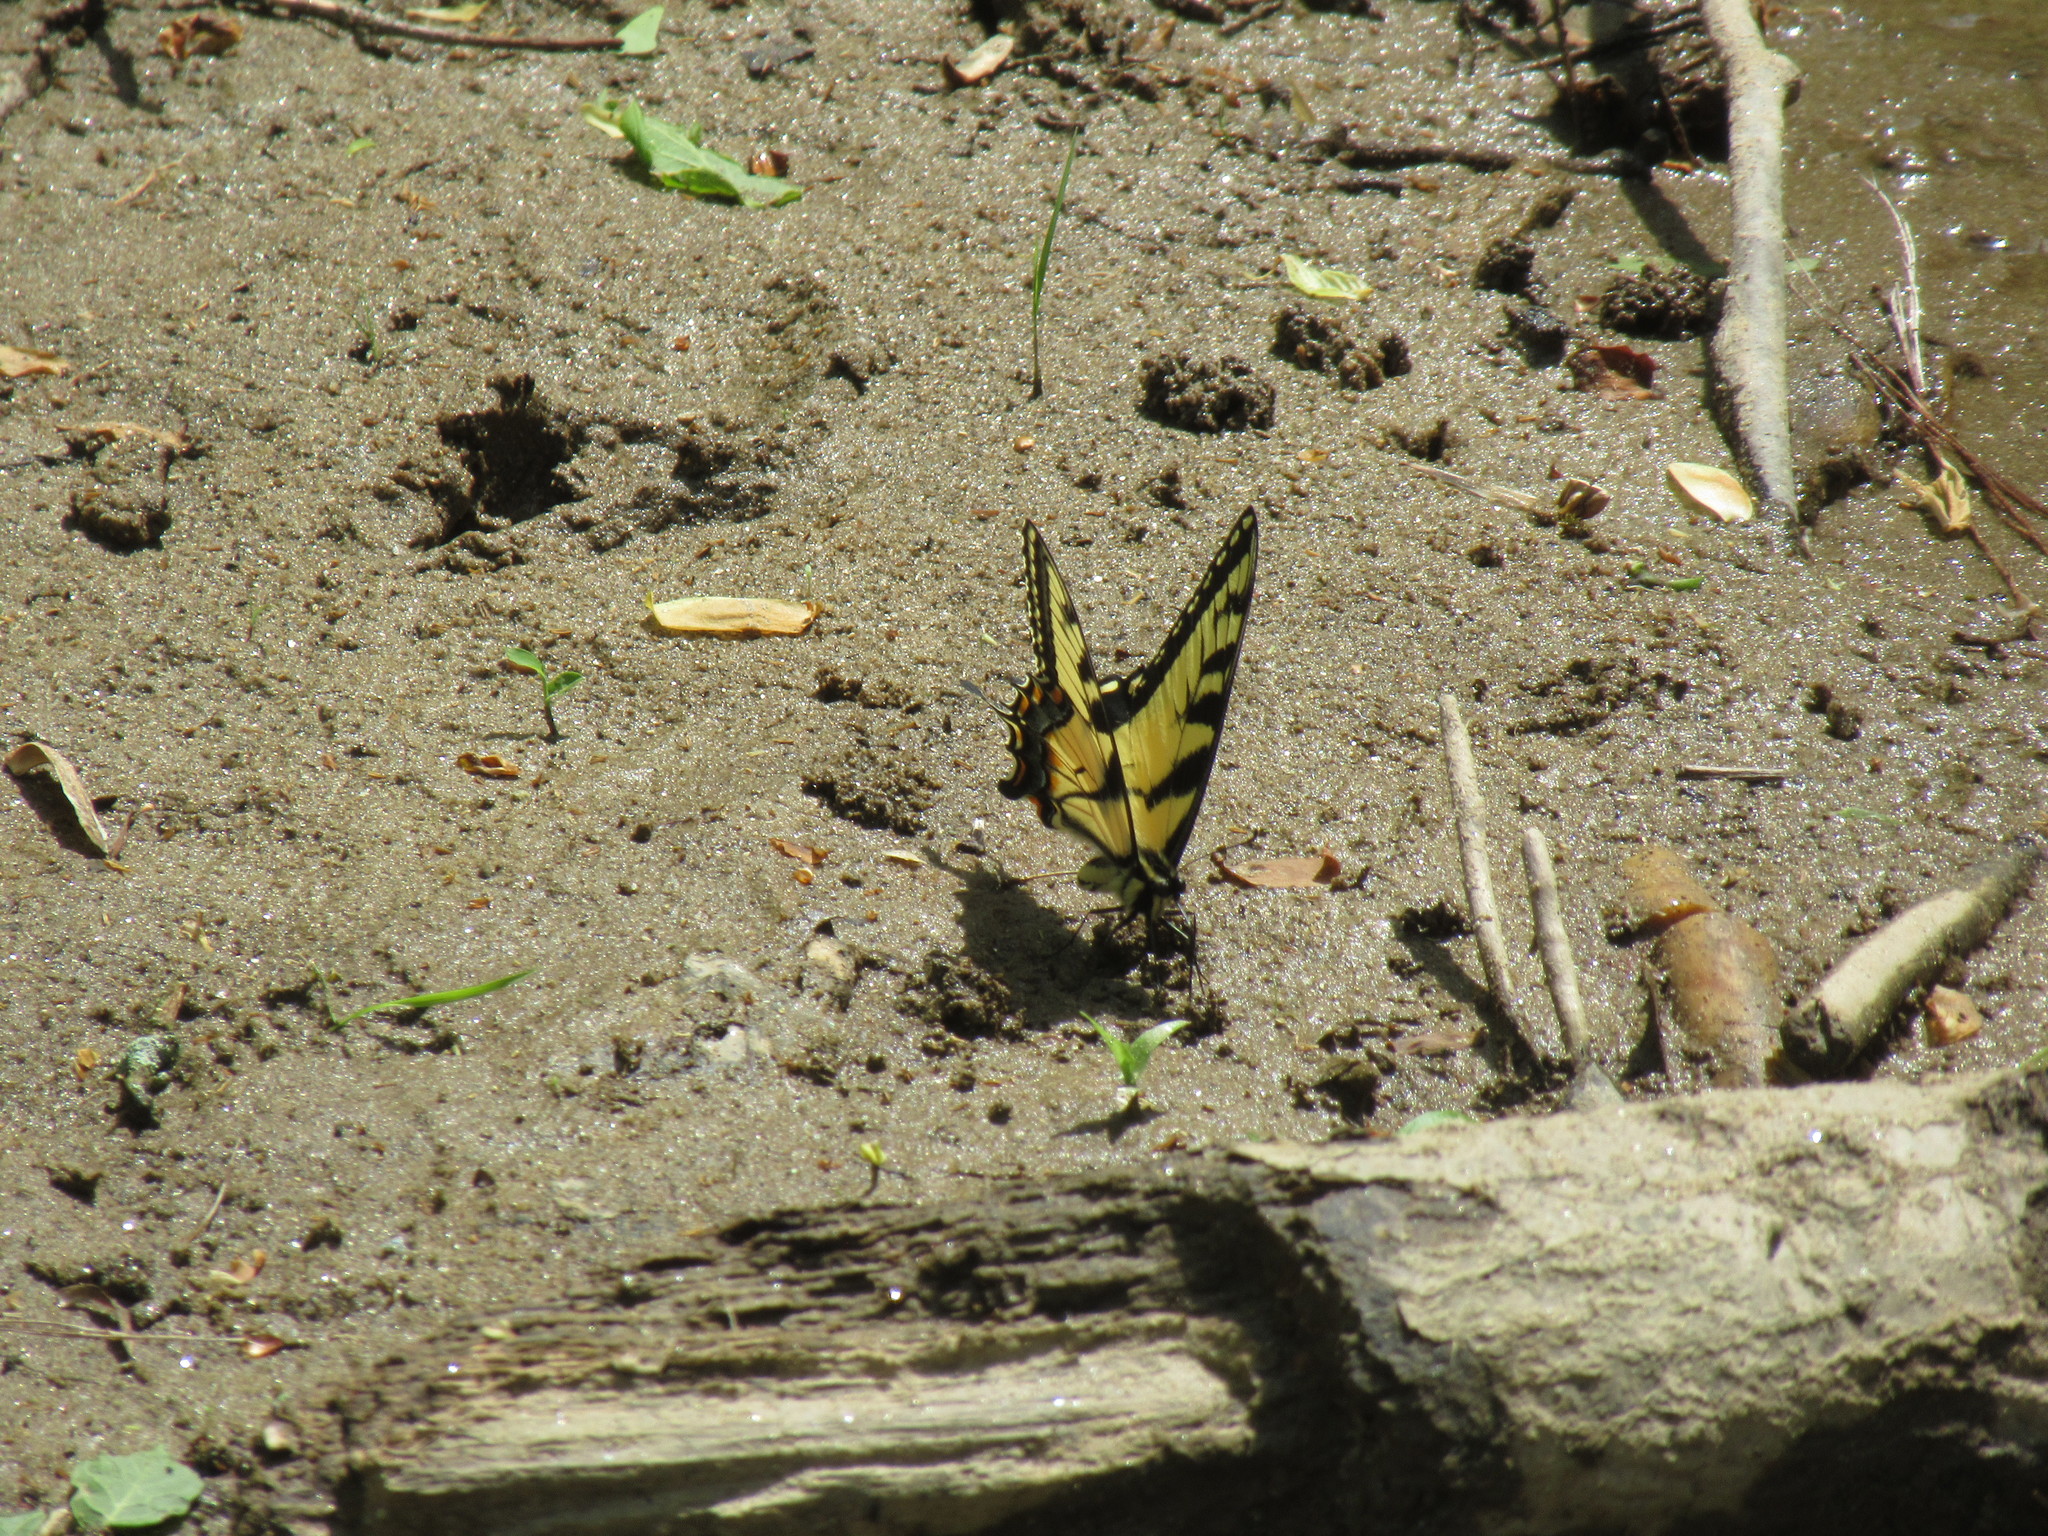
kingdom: Animalia
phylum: Arthropoda
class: Insecta
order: Lepidoptera
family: Papilionidae
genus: Papilio
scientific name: Papilio glaucus
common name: Tiger swallowtail
